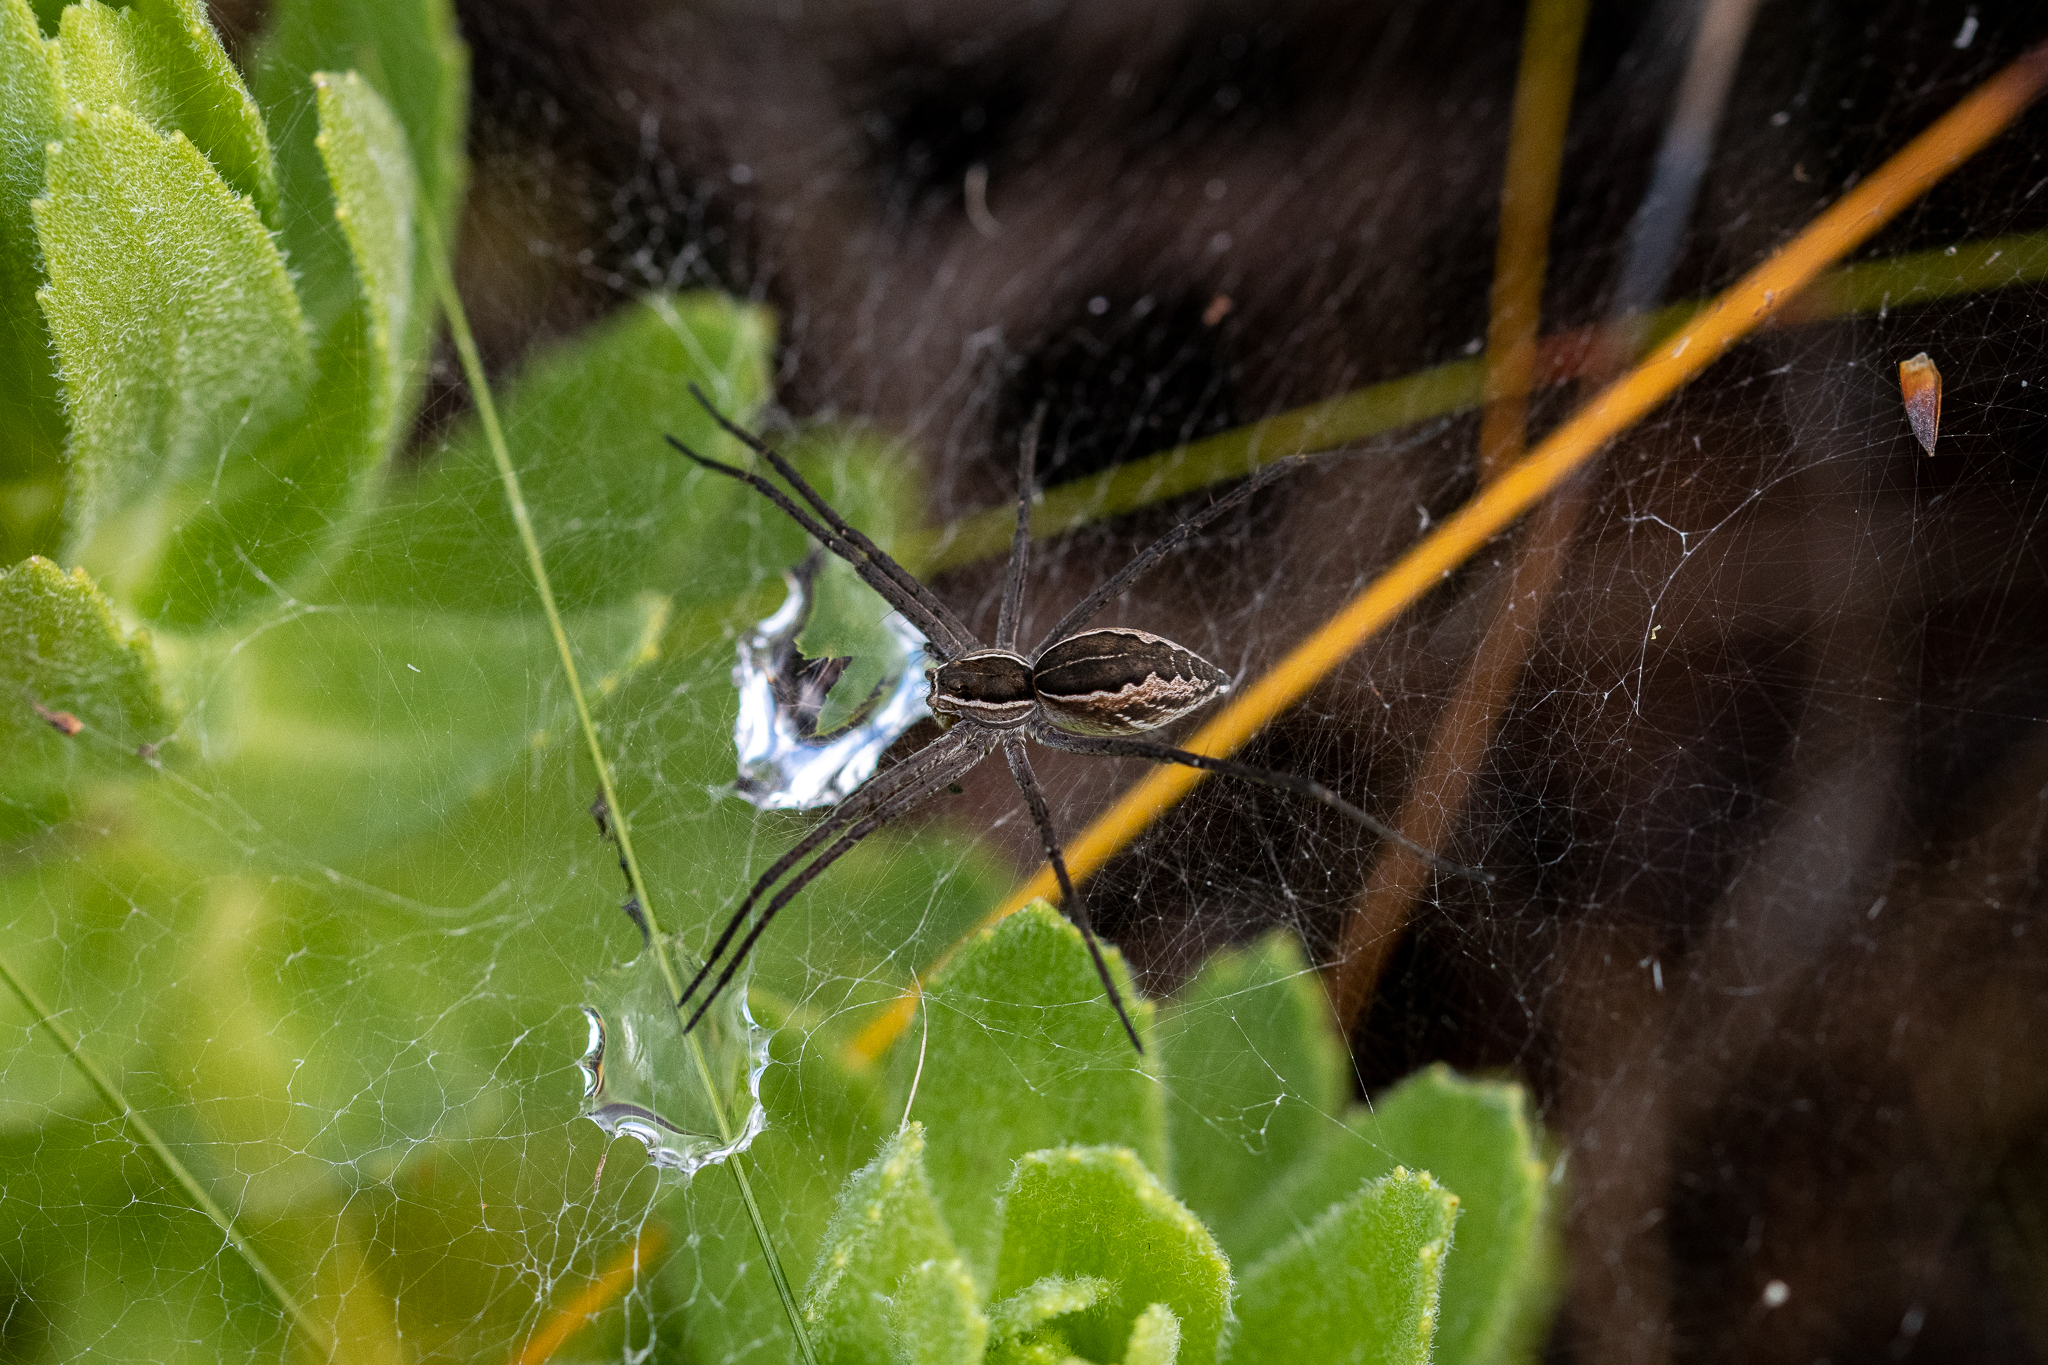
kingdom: Animalia
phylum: Arthropoda
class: Arachnida
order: Araneae
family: Pisauridae
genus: Euprosthenopsis
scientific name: Euprosthenopsis pulchella
